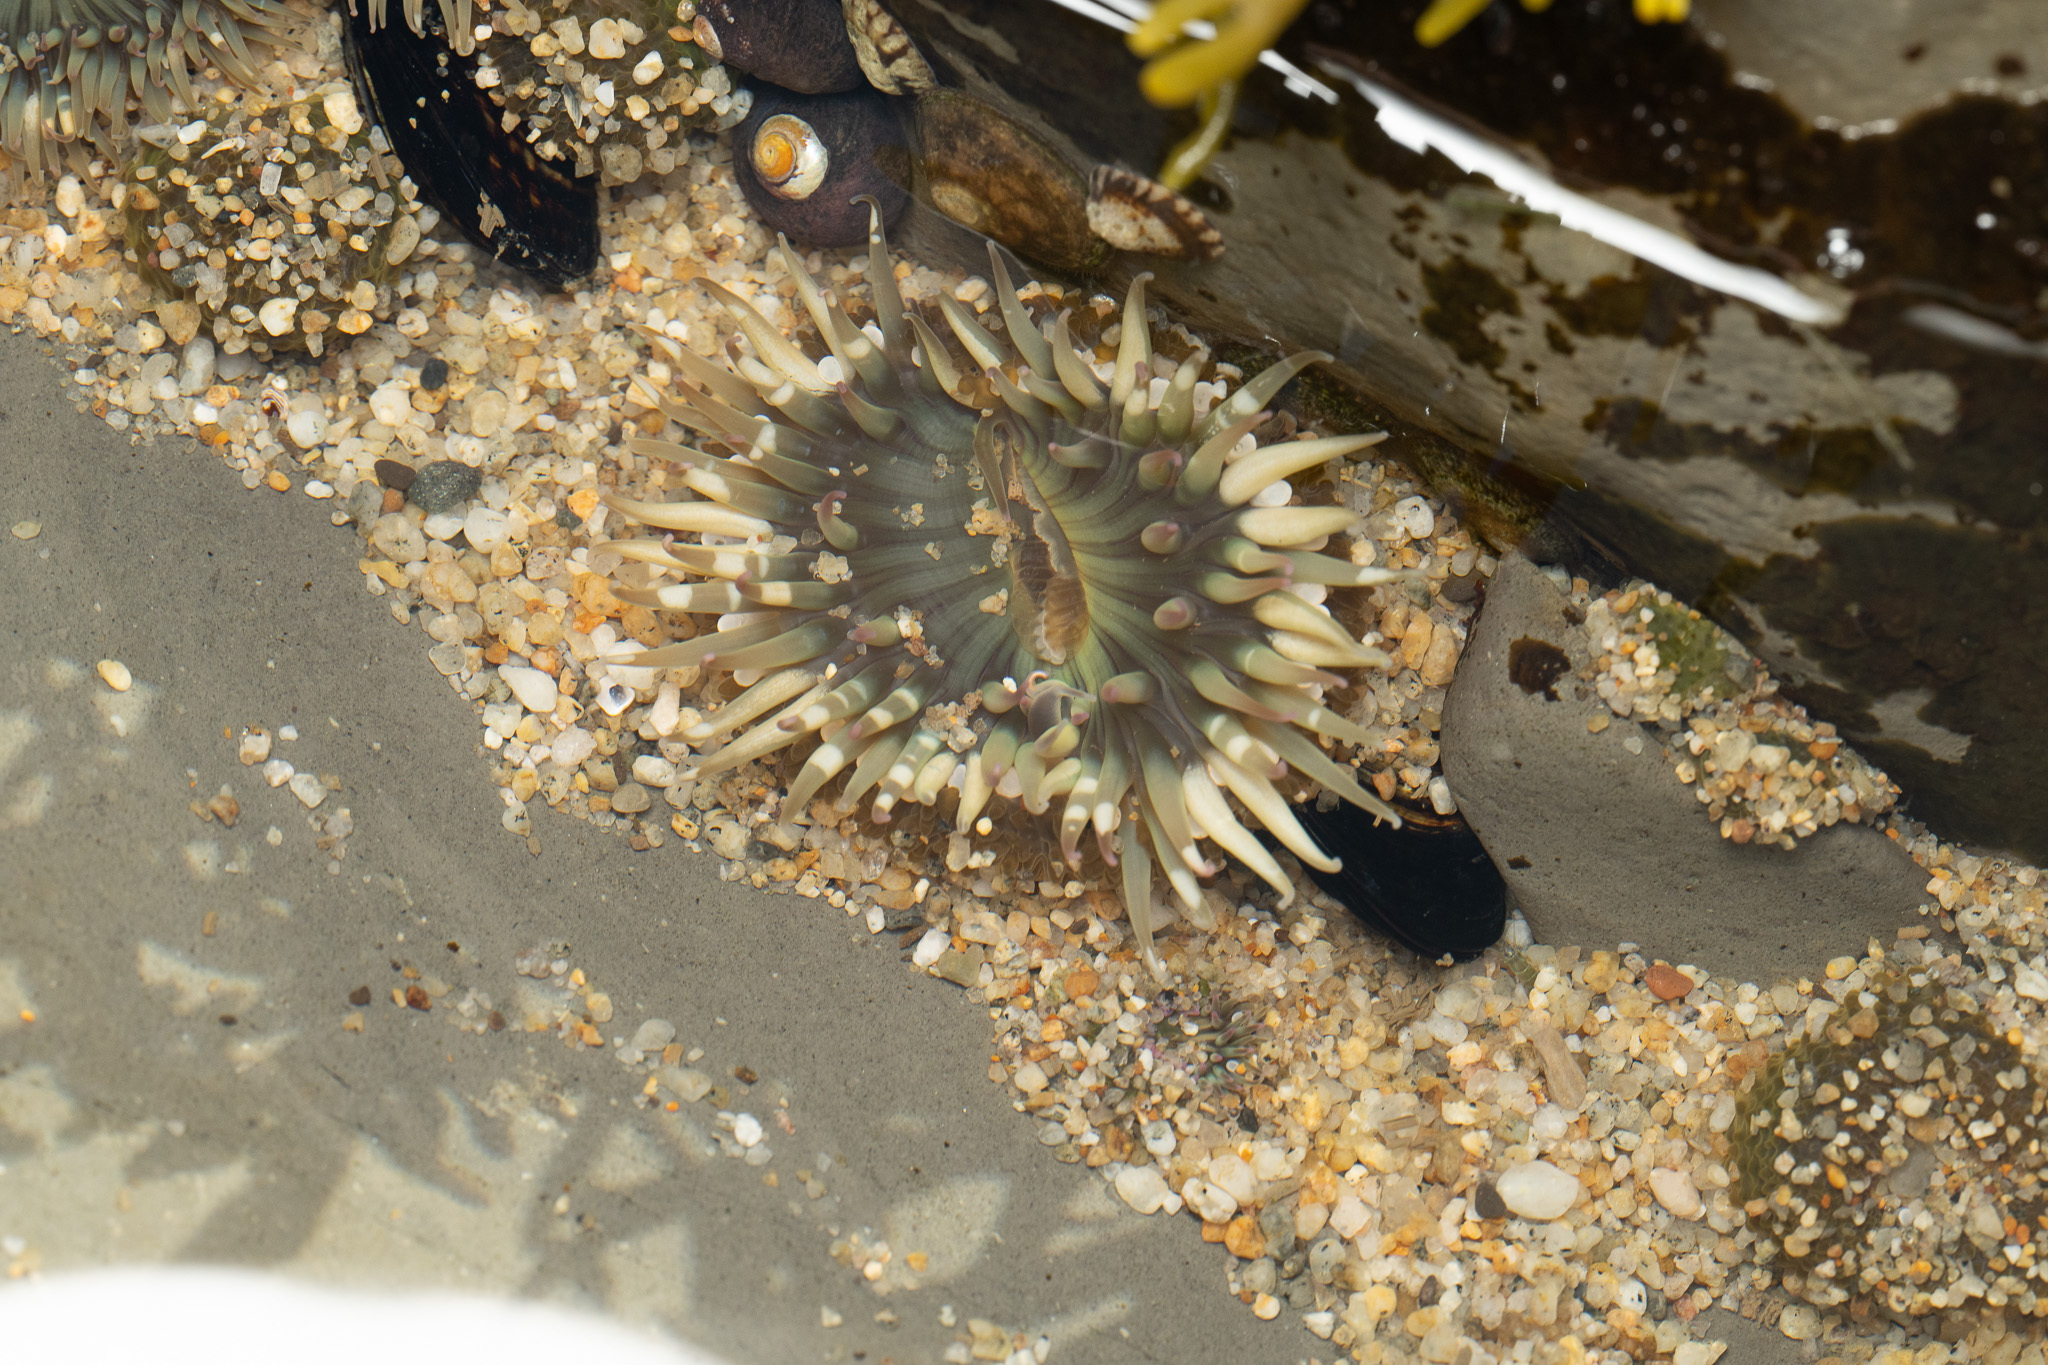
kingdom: Animalia
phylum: Cnidaria
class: Anthozoa
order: Actiniaria
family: Actiniidae
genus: Anthopleura
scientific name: Anthopleura elegantissima
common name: Clonal anemone
